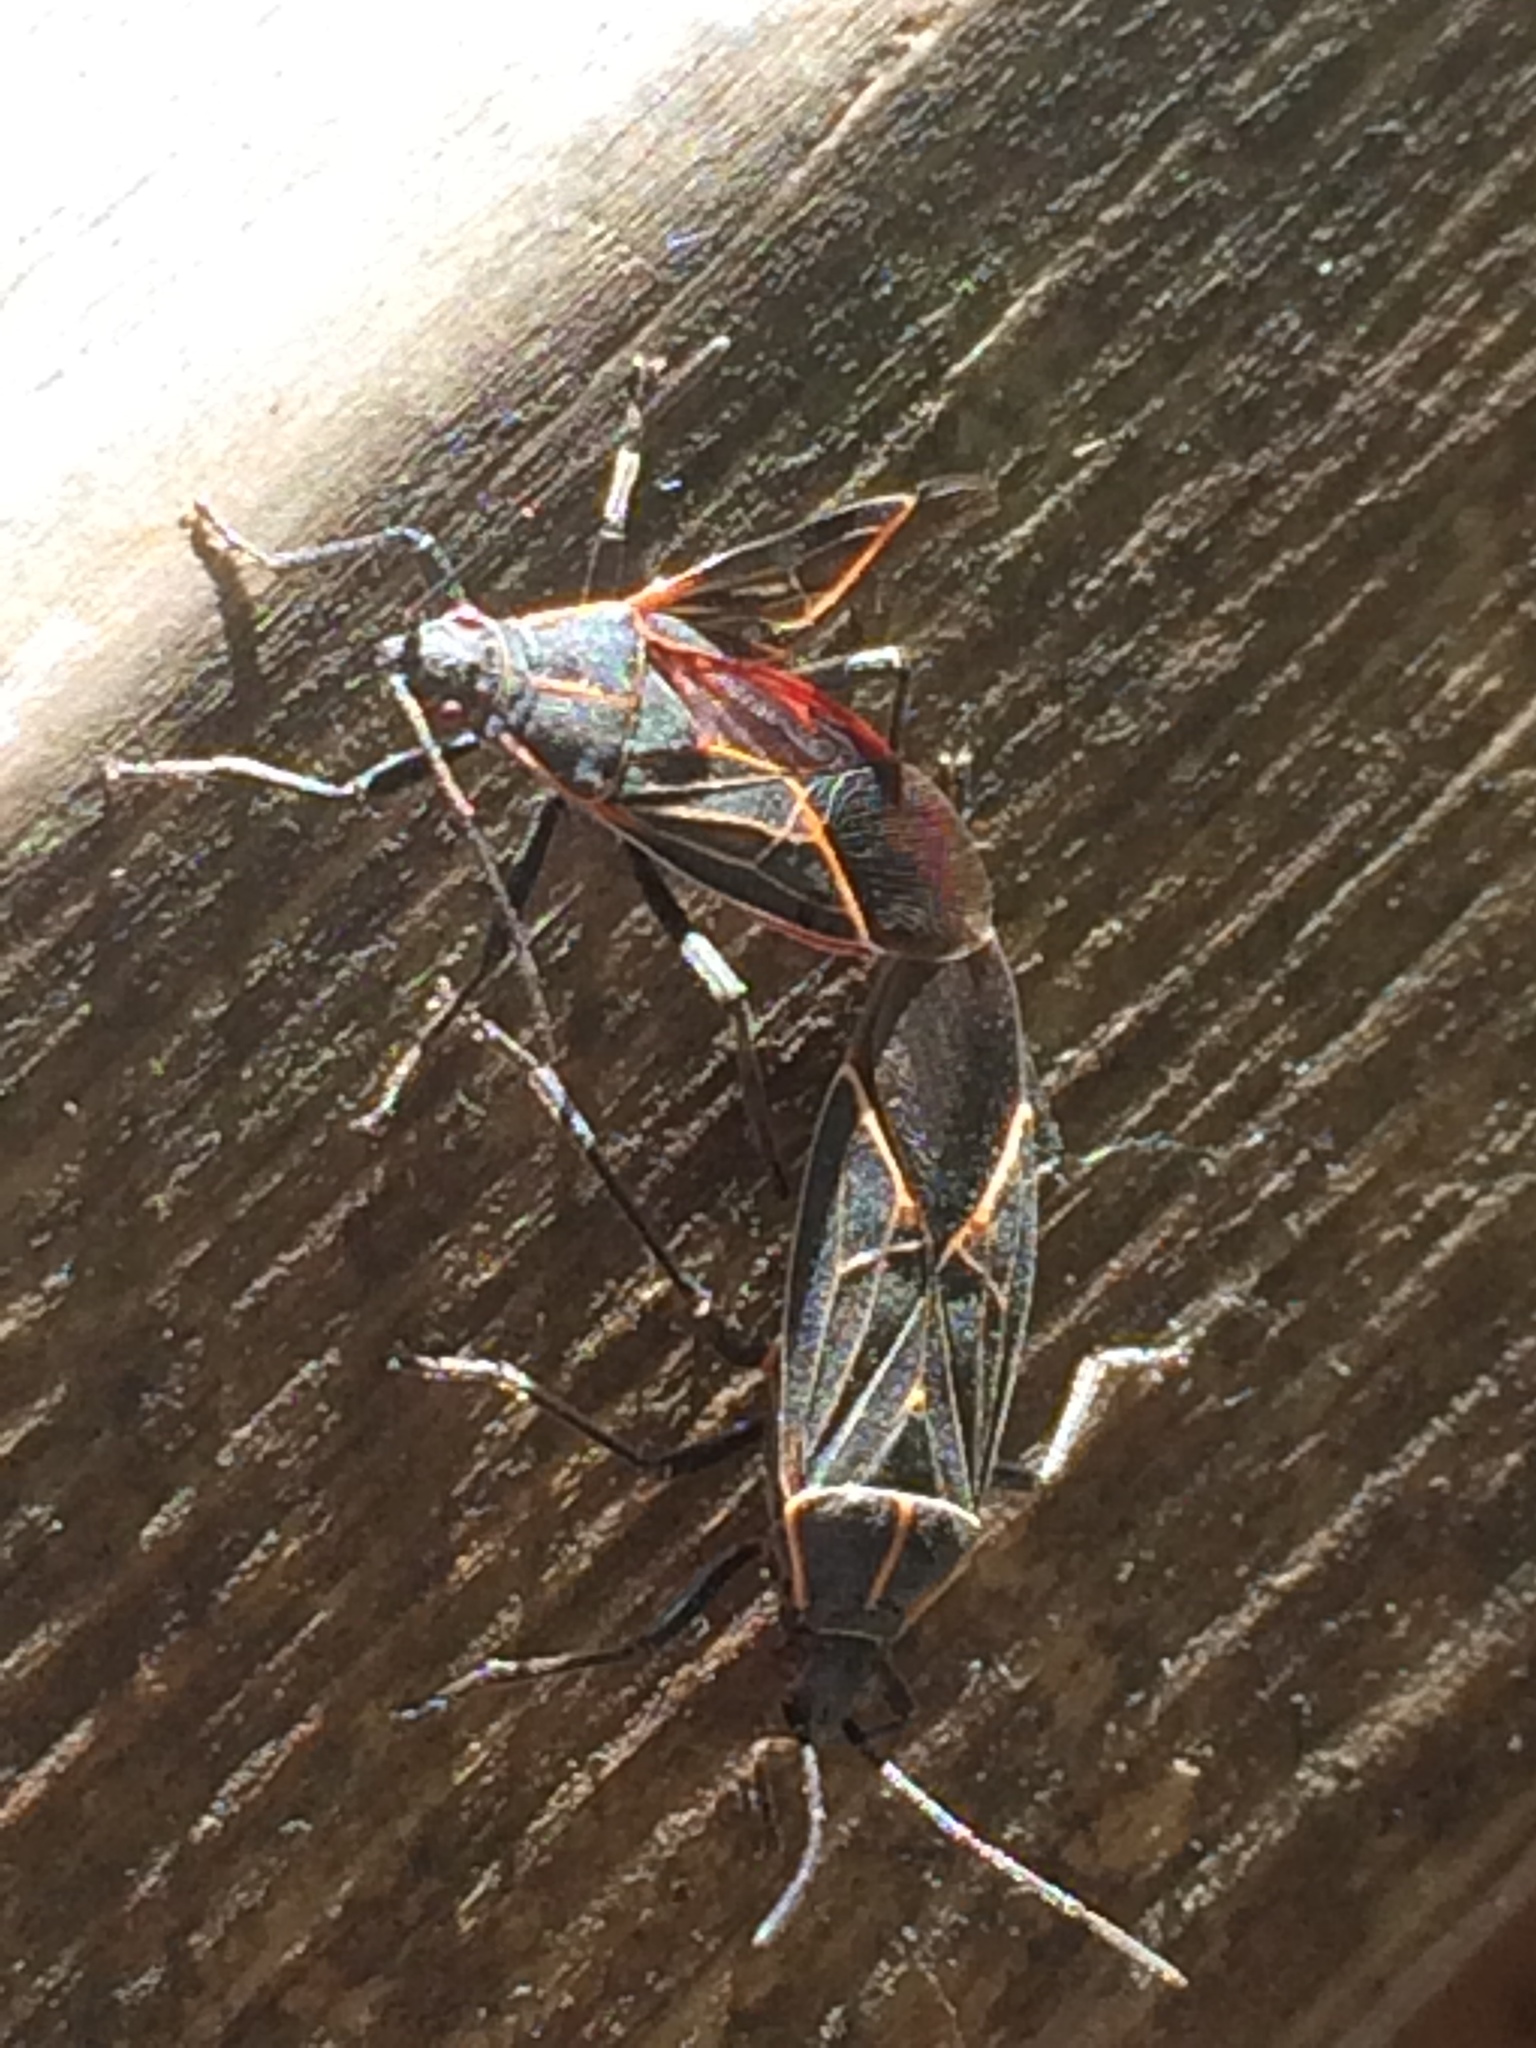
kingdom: Animalia
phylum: Arthropoda
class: Insecta
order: Hemiptera
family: Rhopalidae
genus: Boisea
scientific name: Boisea rubrolineata
